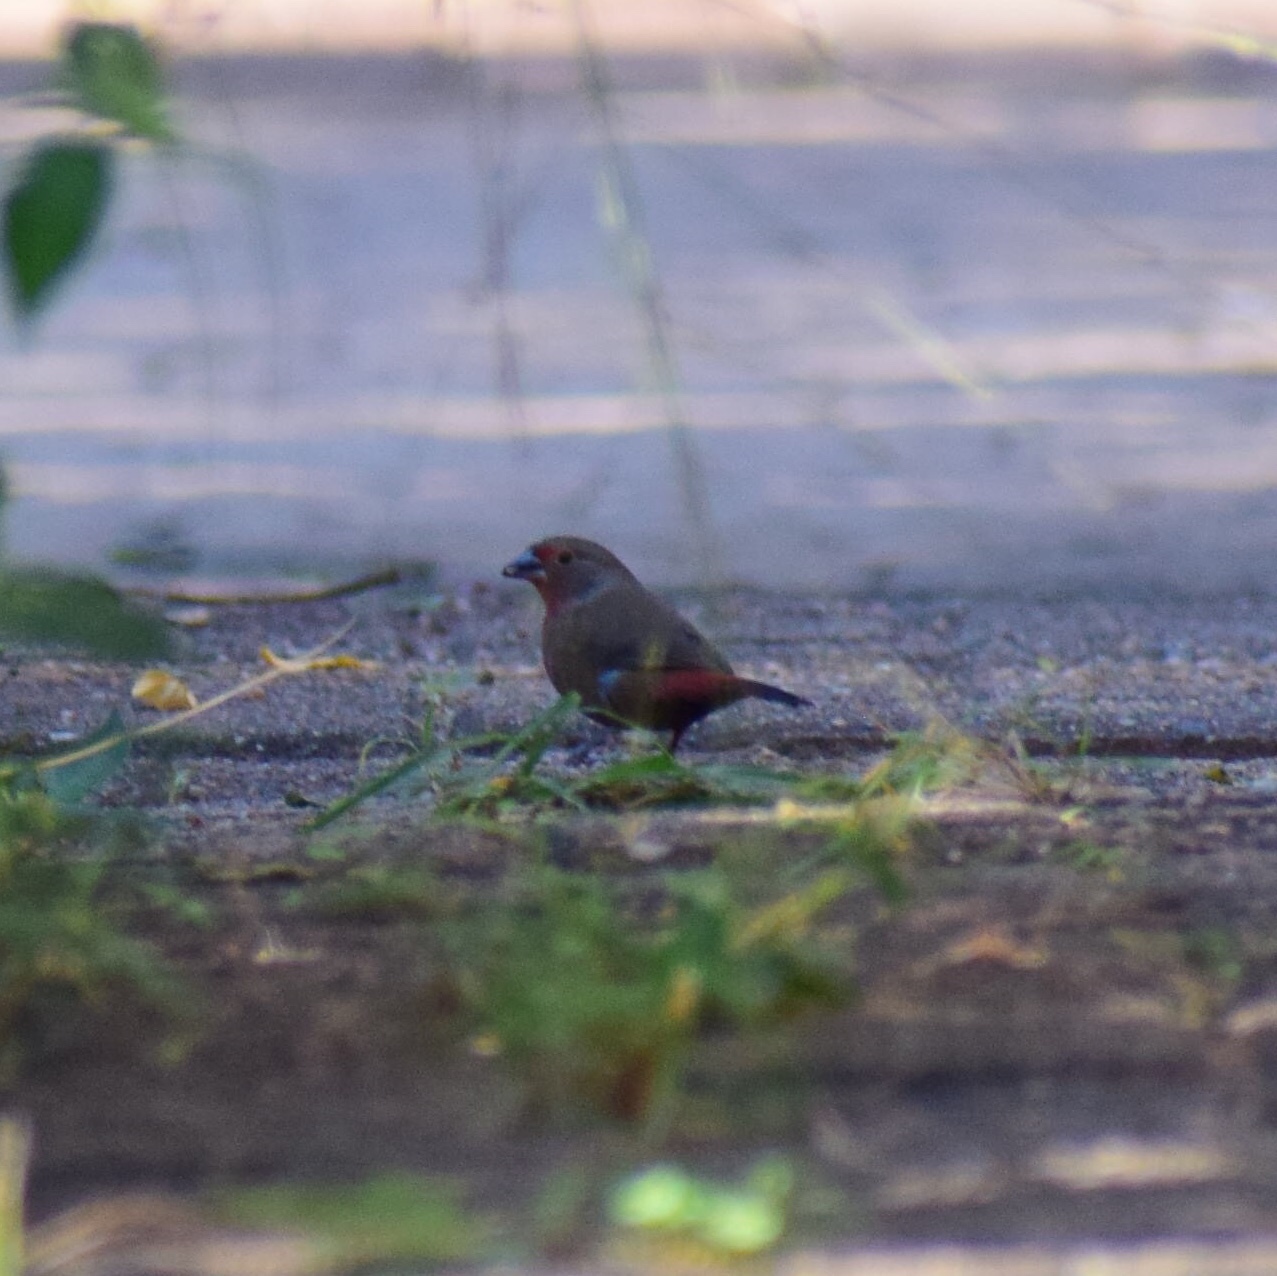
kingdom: Animalia
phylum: Chordata
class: Aves
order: Passeriformes
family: Estrildidae
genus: Lagonosticta
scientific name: Lagonosticta rubricata
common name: African firefinch
